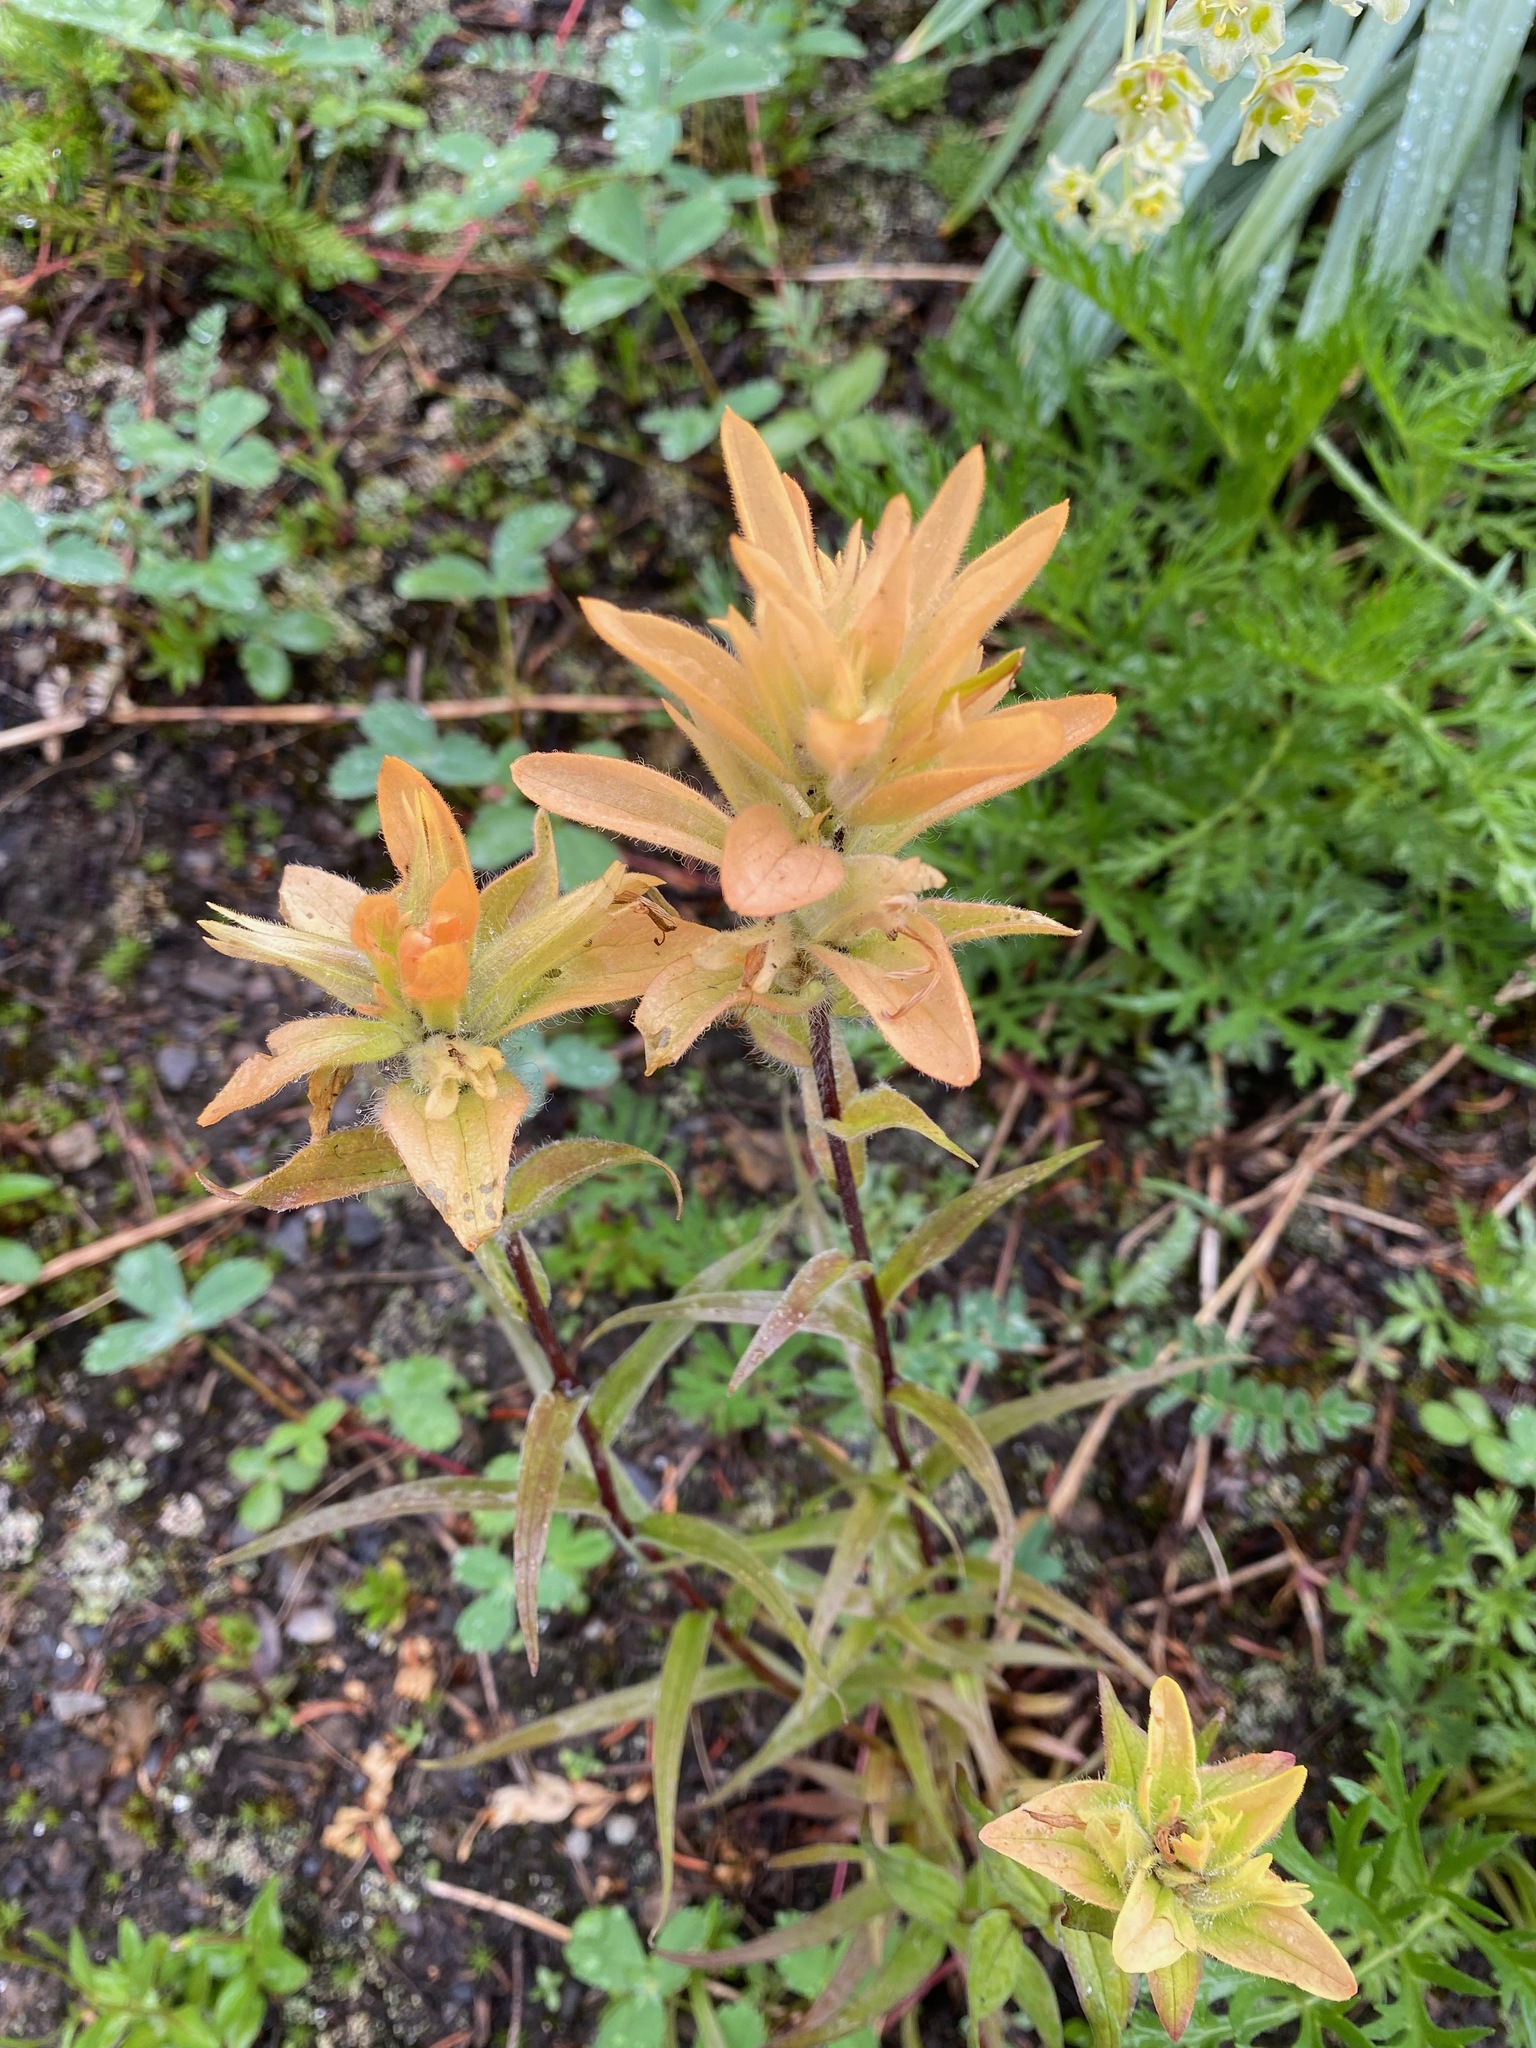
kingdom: Plantae
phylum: Tracheophyta
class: Magnoliopsida
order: Lamiales
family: Orobanchaceae
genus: Castilleja
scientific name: Castilleja miniata
